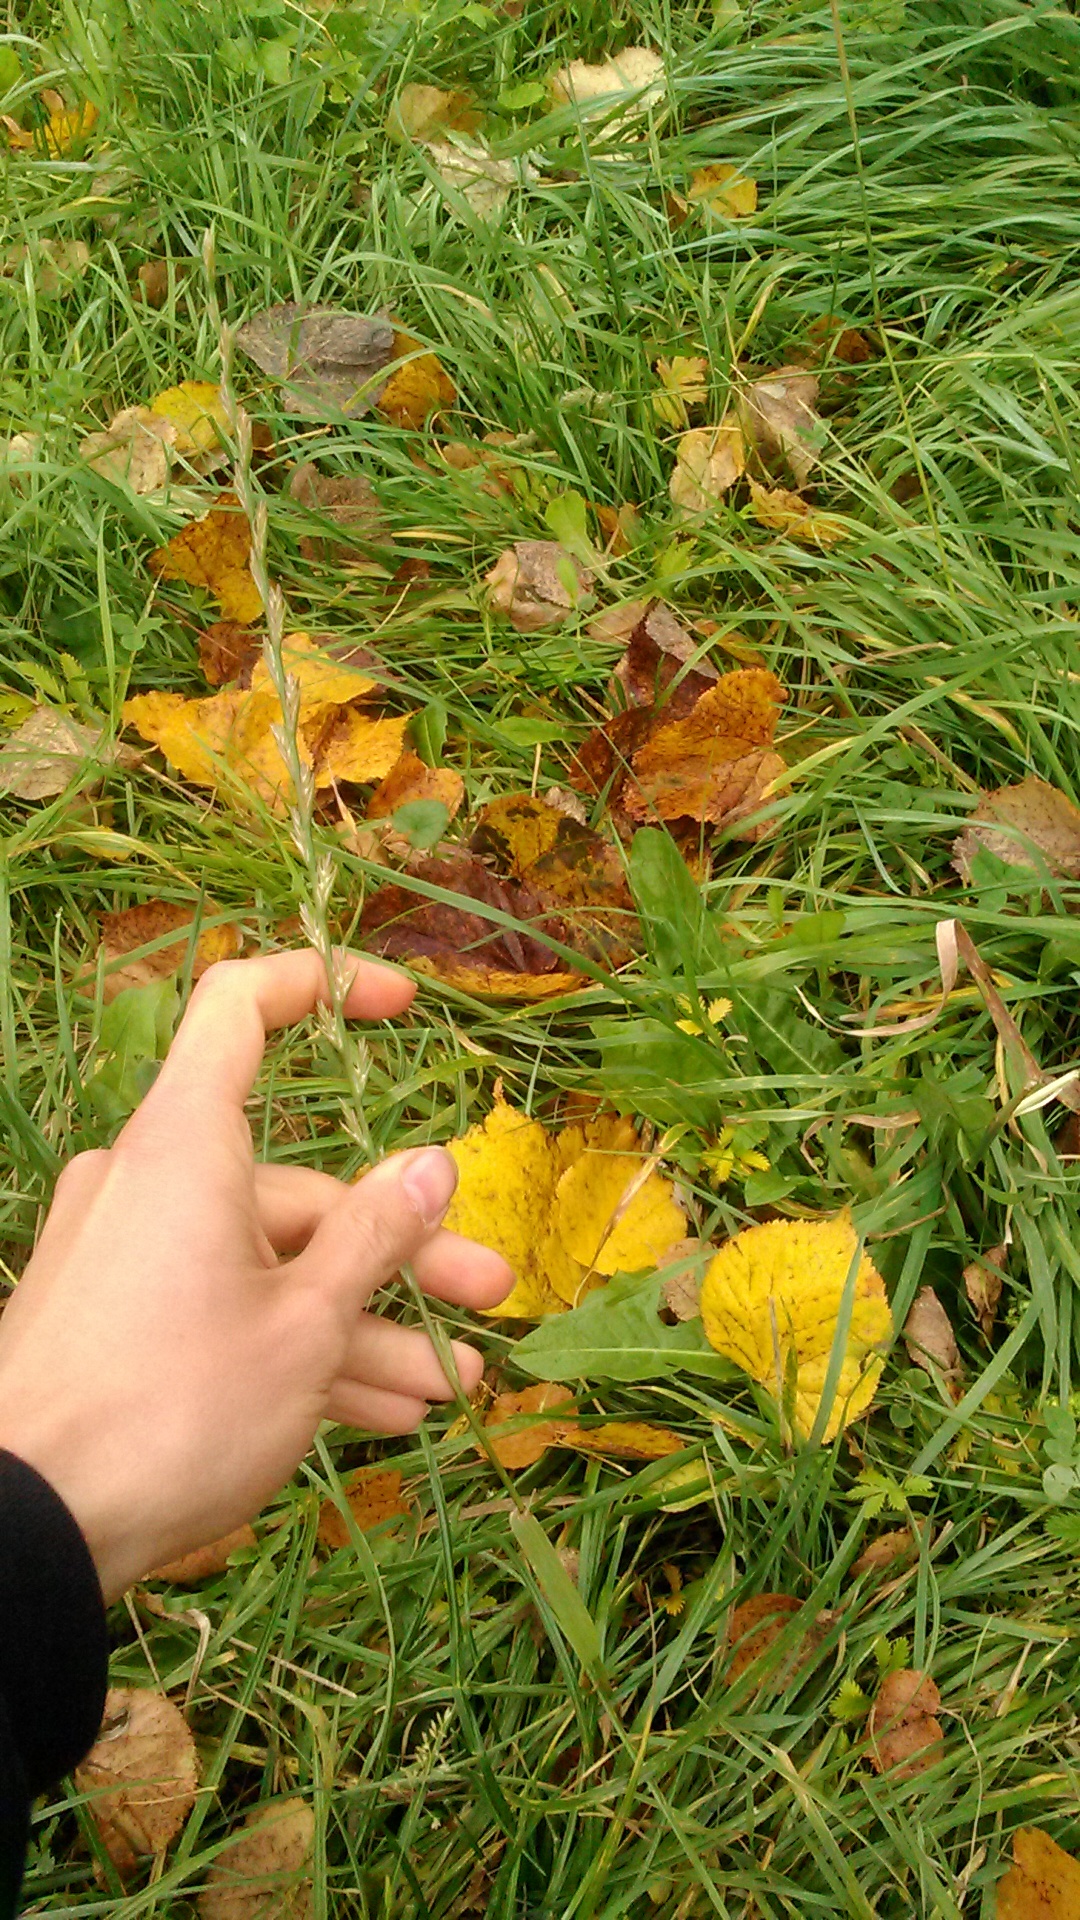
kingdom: Plantae
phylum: Tracheophyta
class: Liliopsida
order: Poales
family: Poaceae
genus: Lolium
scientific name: Lolium perenne
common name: Perennial ryegrass
